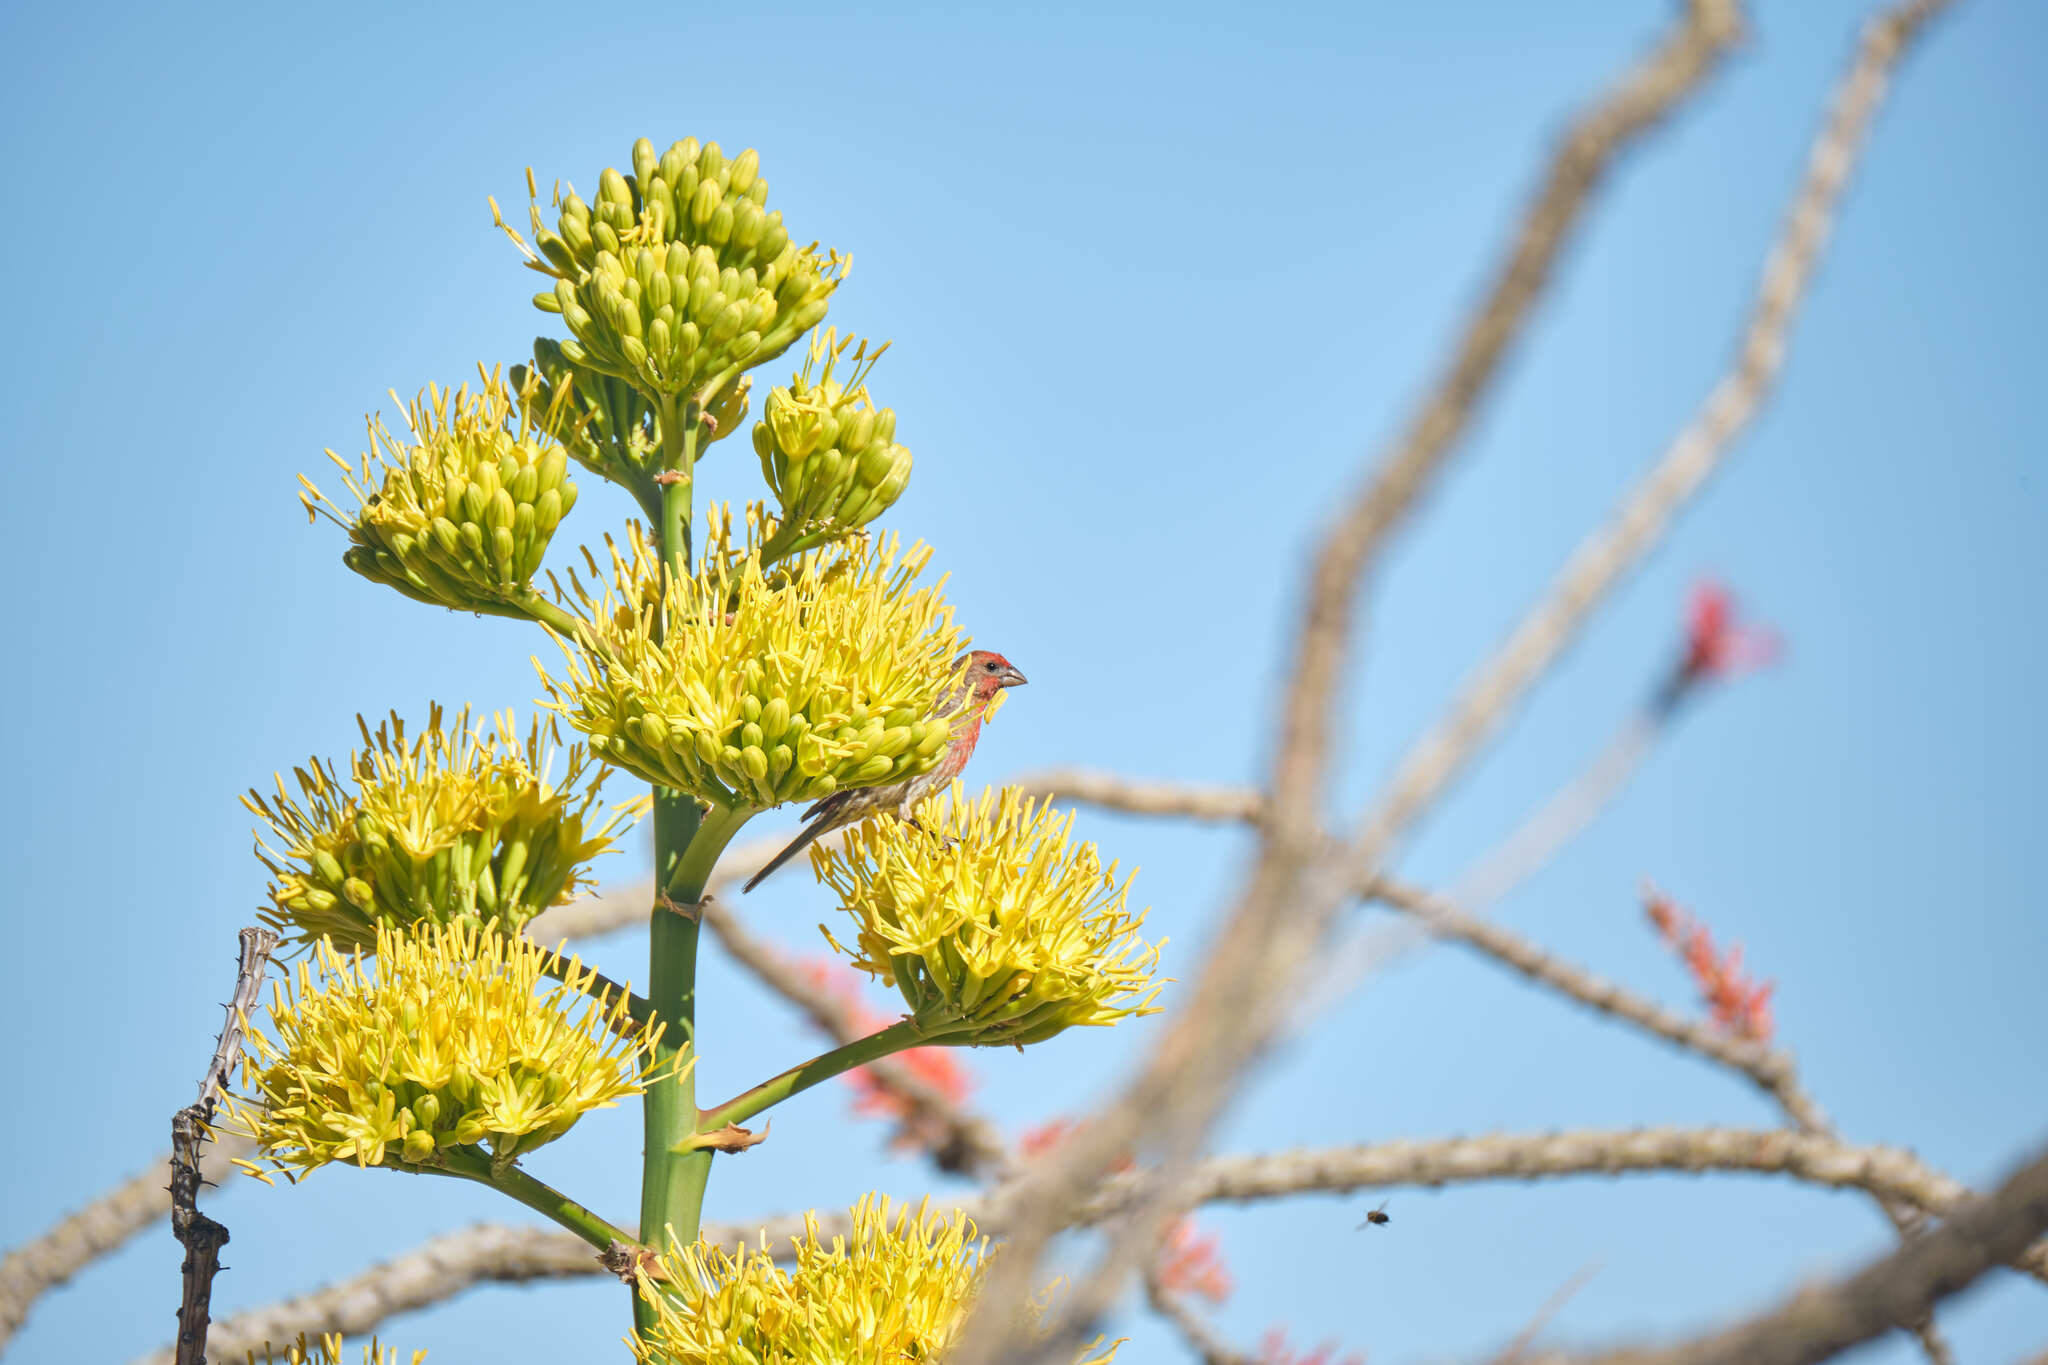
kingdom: Animalia
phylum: Chordata
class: Aves
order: Passeriformes
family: Fringillidae
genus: Haemorhous
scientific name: Haemorhous mexicanus
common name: House finch
